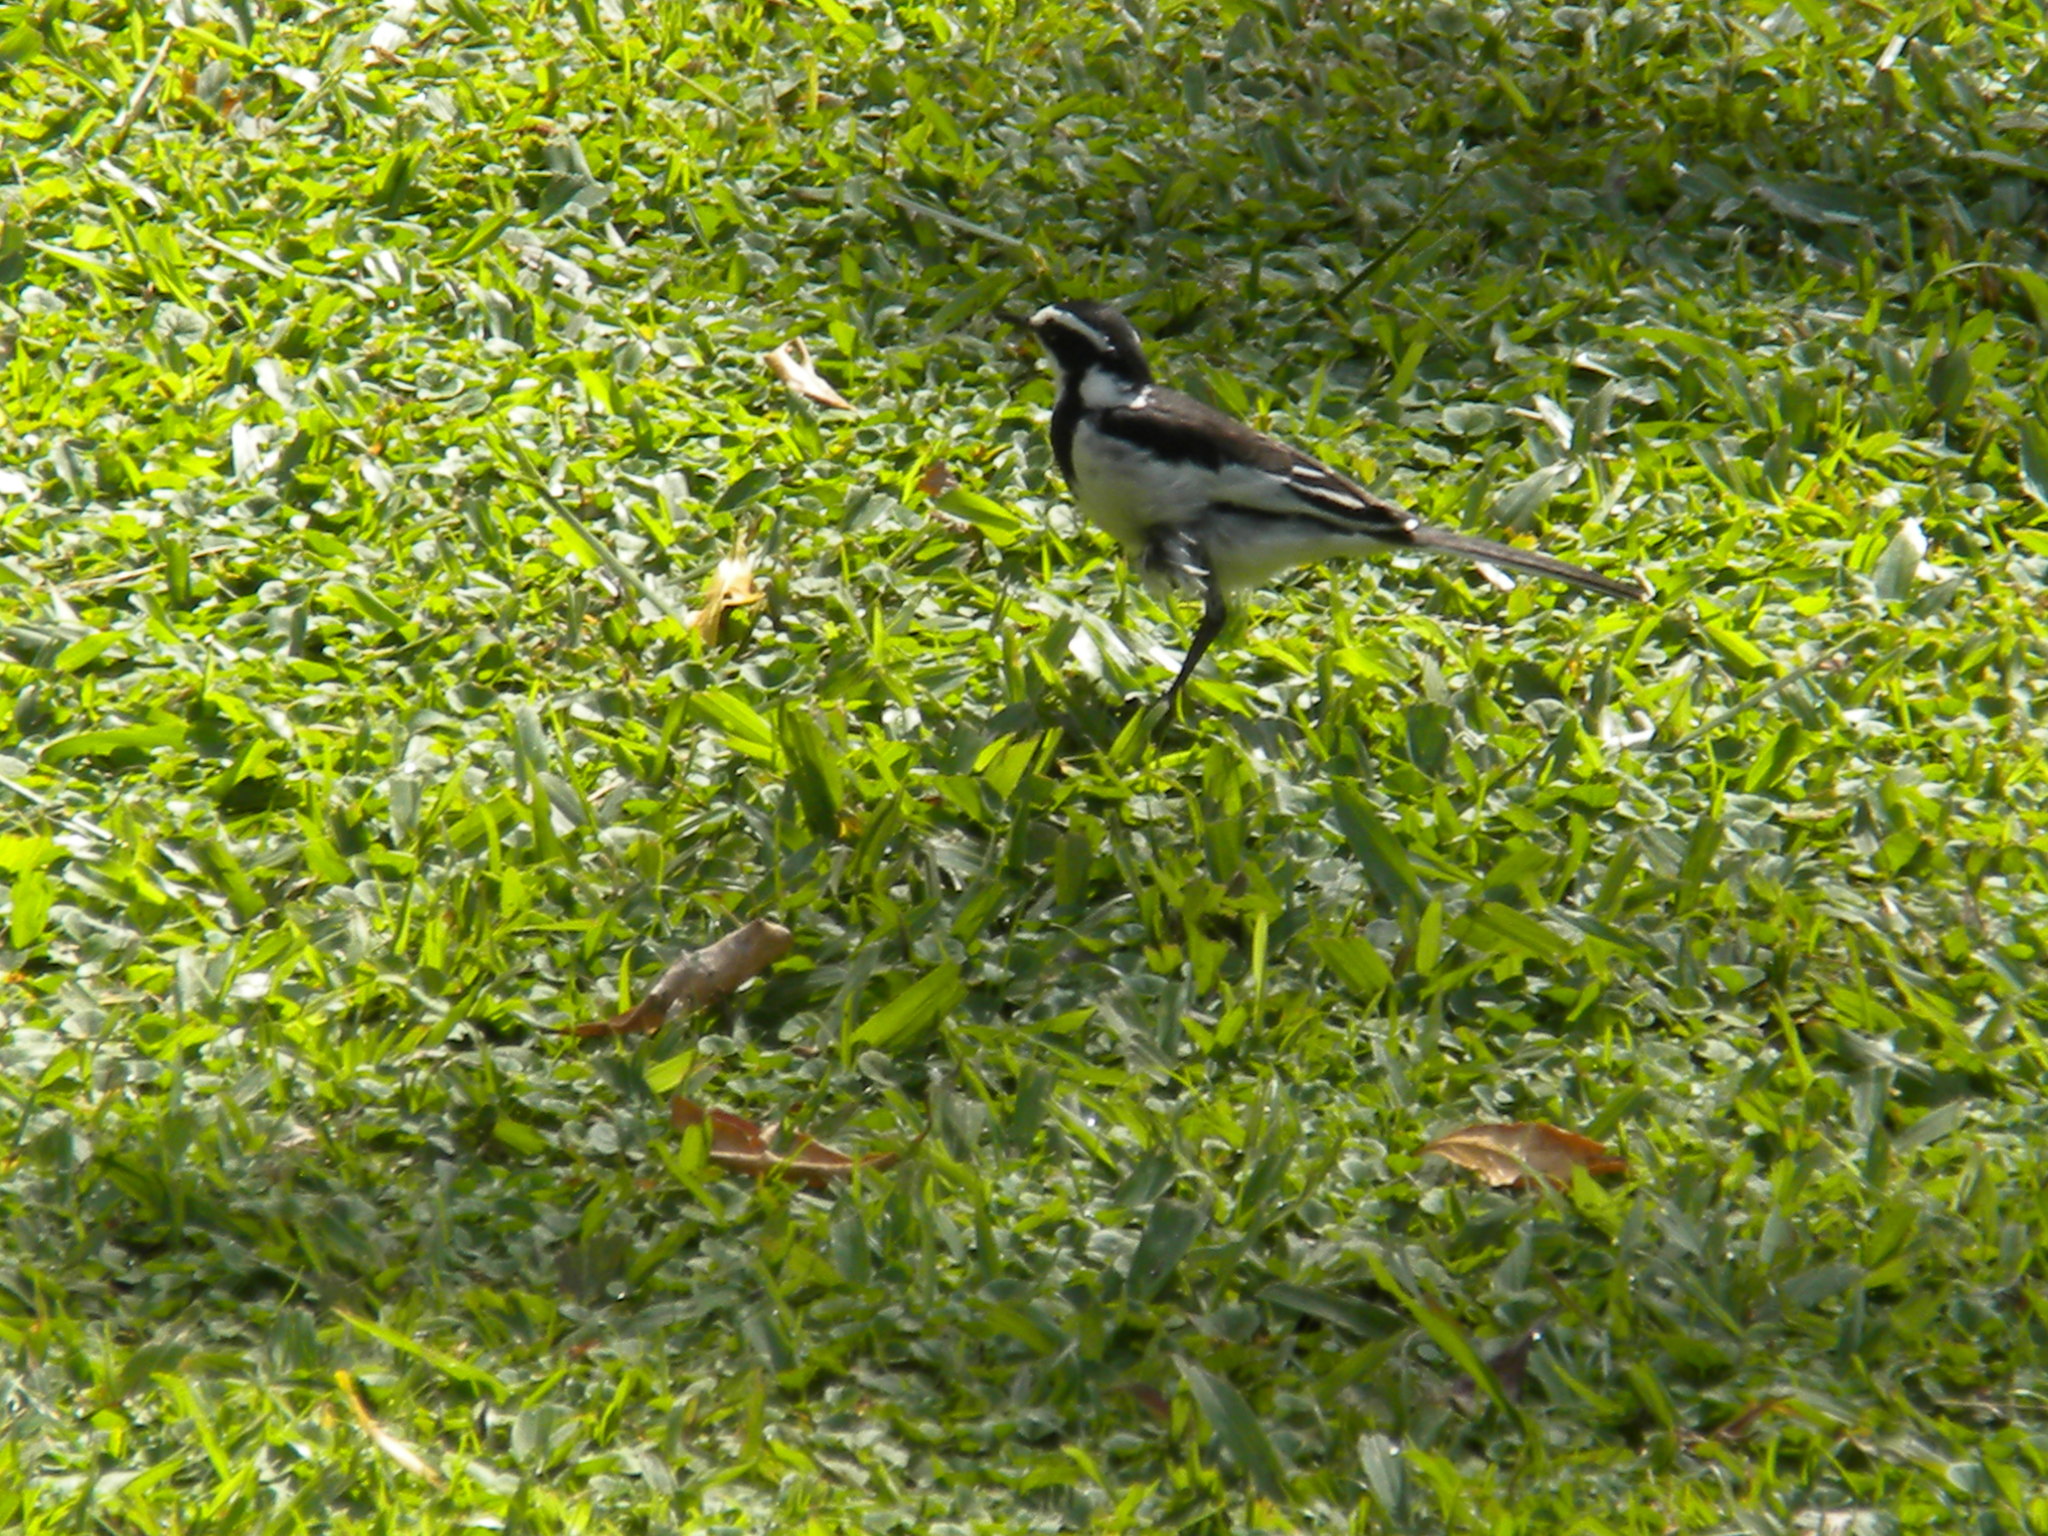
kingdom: Animalia
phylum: Chordata
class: Aves
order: Passeriformes
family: Motacillidae
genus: Motacilla
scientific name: Motacilla aguimp
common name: African pied wagtail
